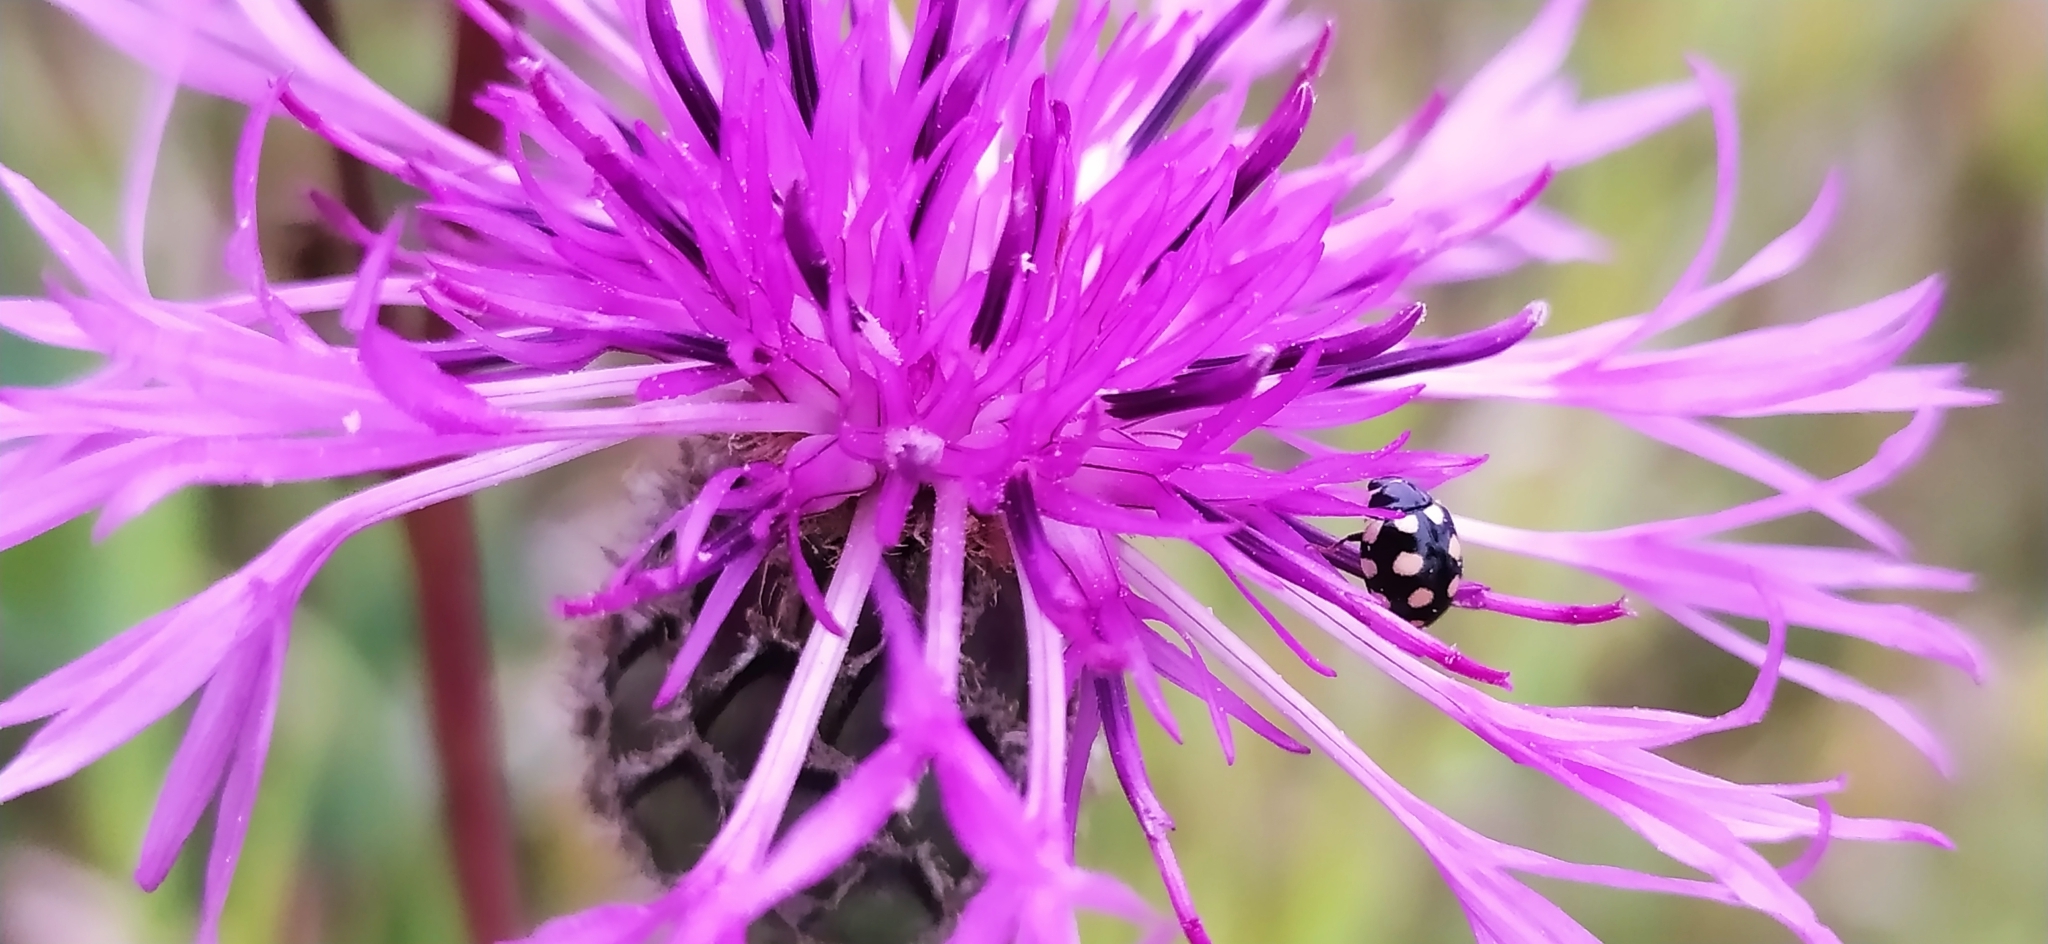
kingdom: Animalia
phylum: Arthropoda
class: Insecta
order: Coleoptera
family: Coccinellidae
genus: Coccinula
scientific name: Coccinula quatuordecimpustulata
